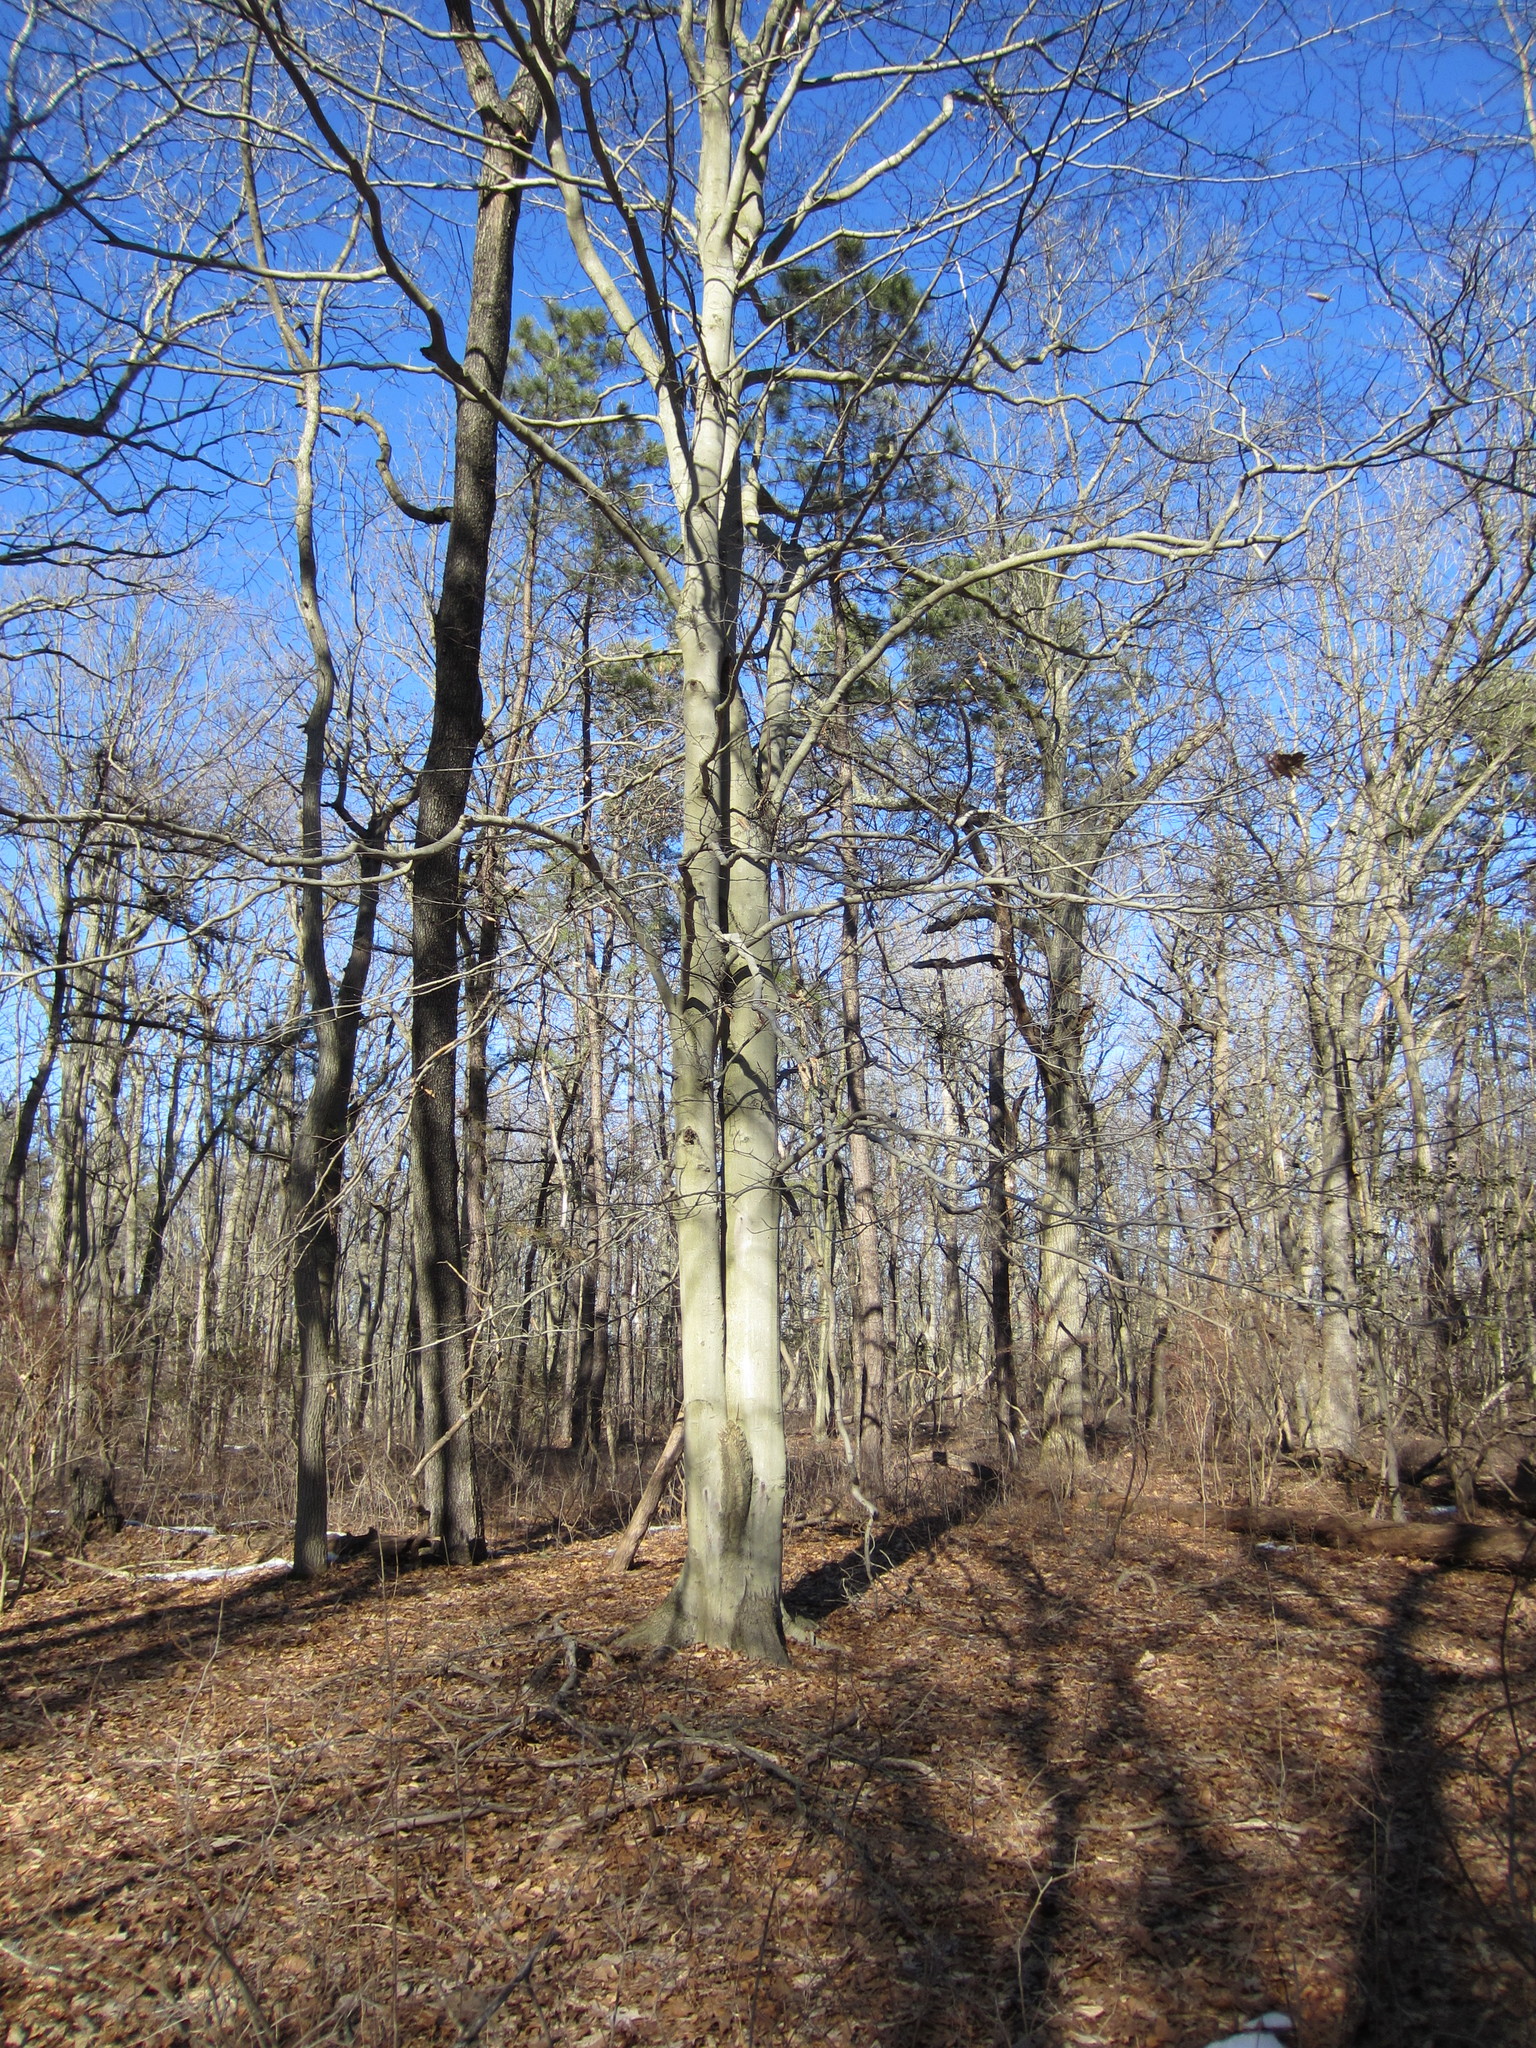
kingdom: Plantae
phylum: Tracheophyta
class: Magnoliopsida
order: Fagales
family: Fagaceae
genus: Fagus
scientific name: Fagus grandifolia
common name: American beech
